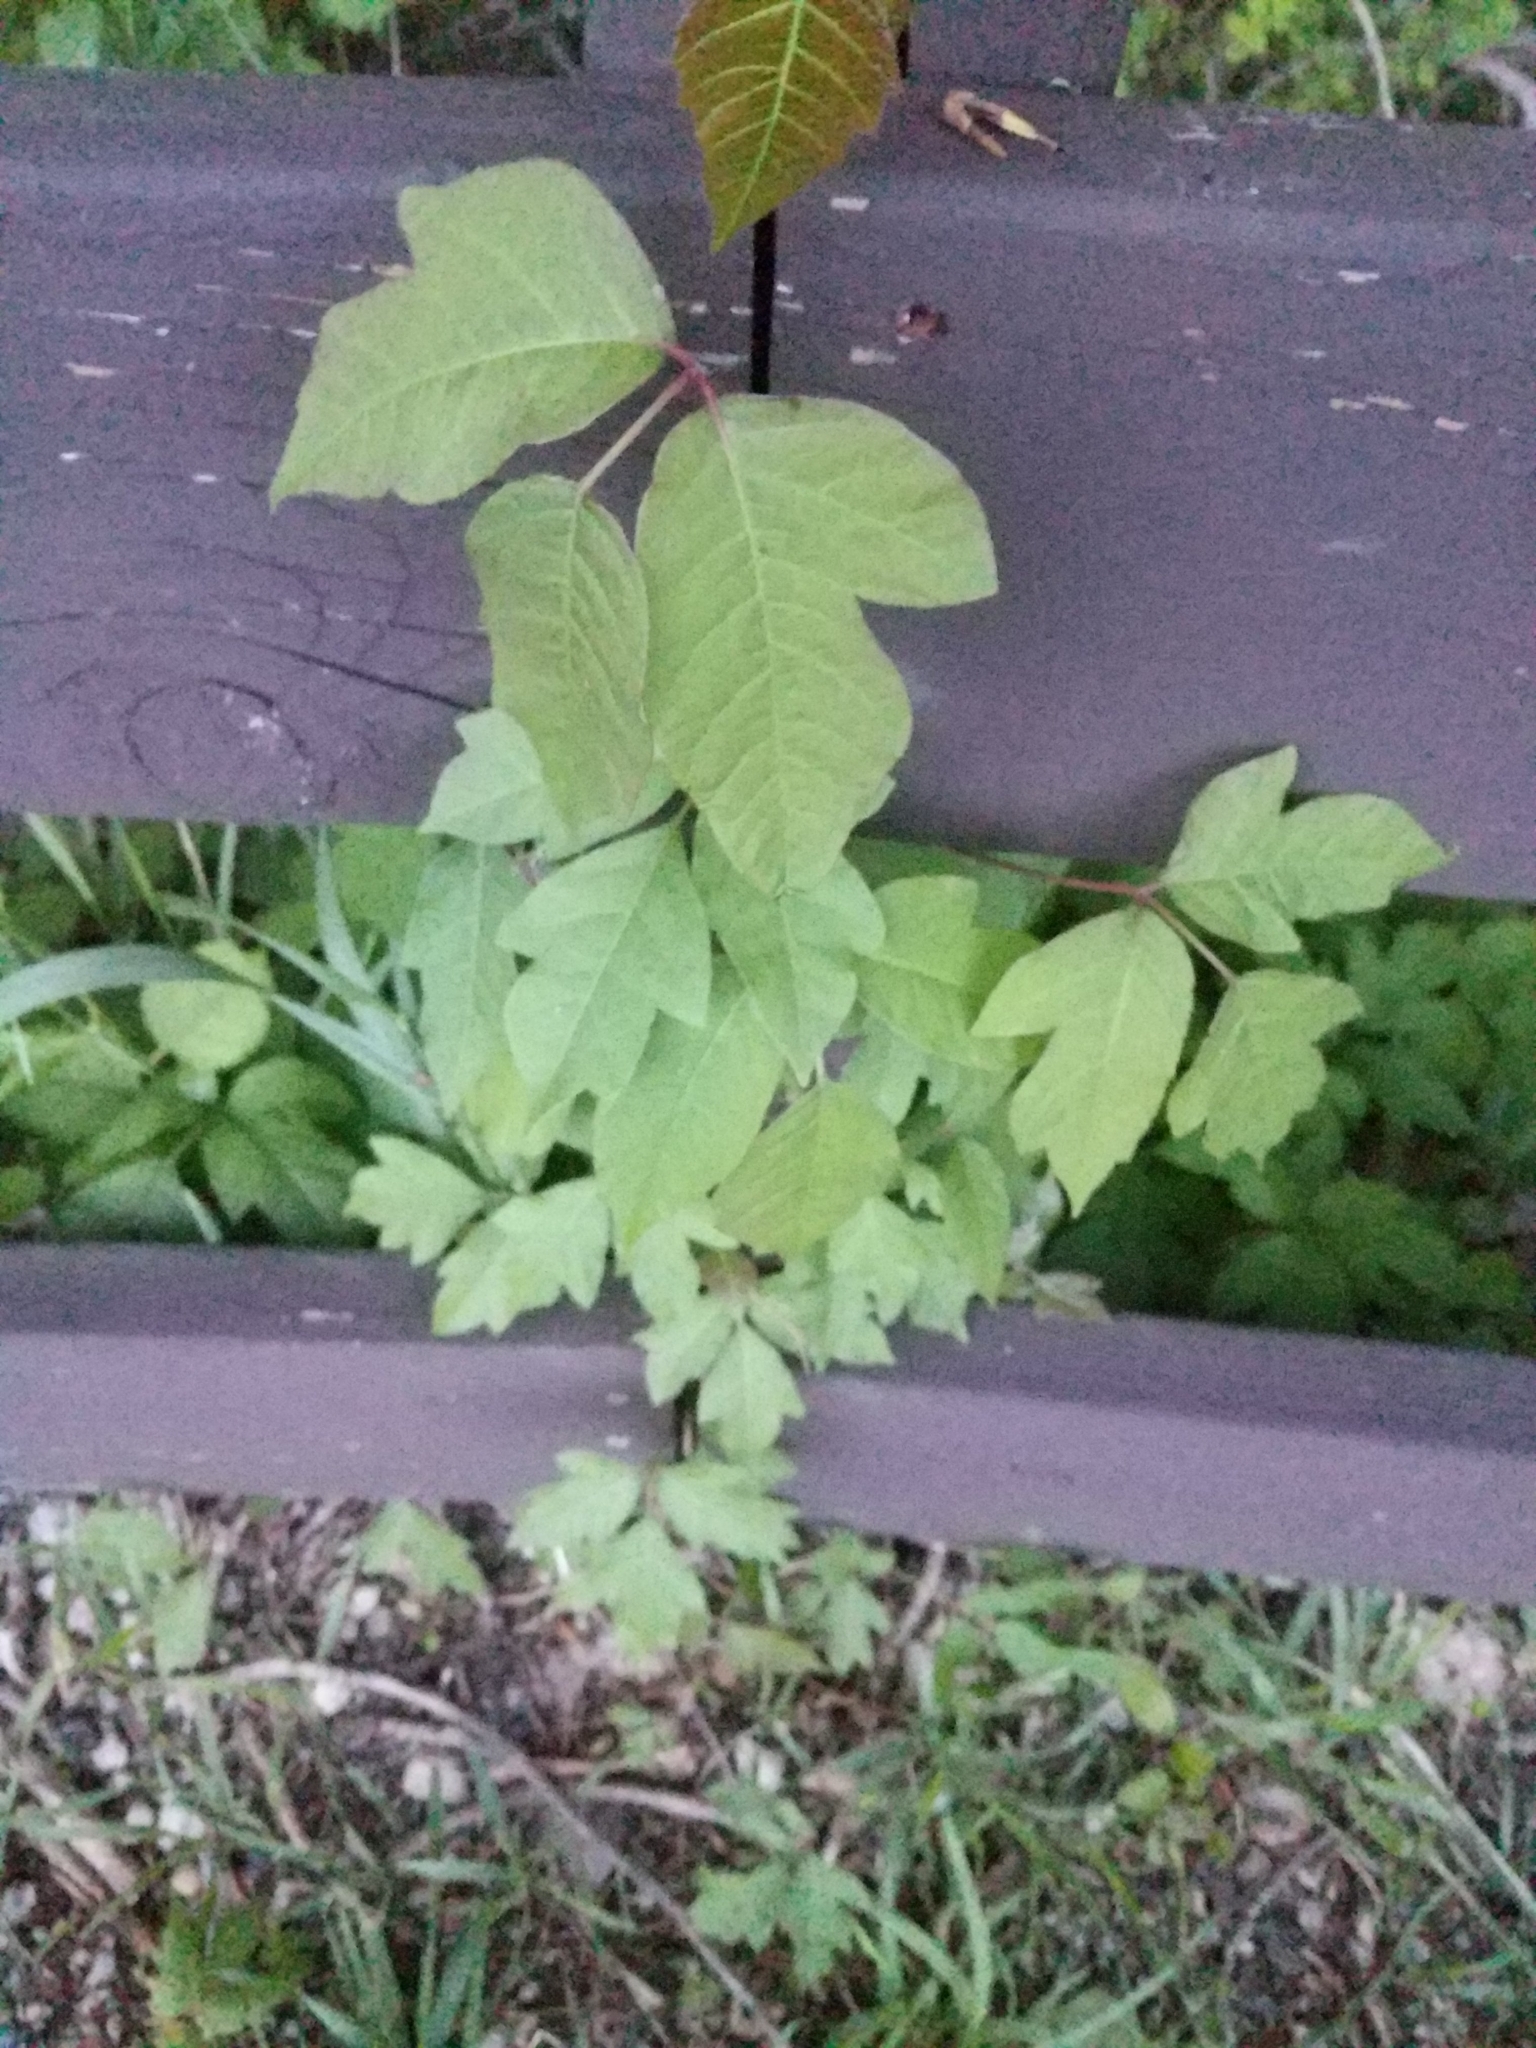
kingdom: Plantae
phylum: Tracheophyta
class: Magnoliopsida
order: Sapindales
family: Anacardiaceae
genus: Toxicodendron
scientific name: Toxicodendron radicans
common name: Poison ivy
